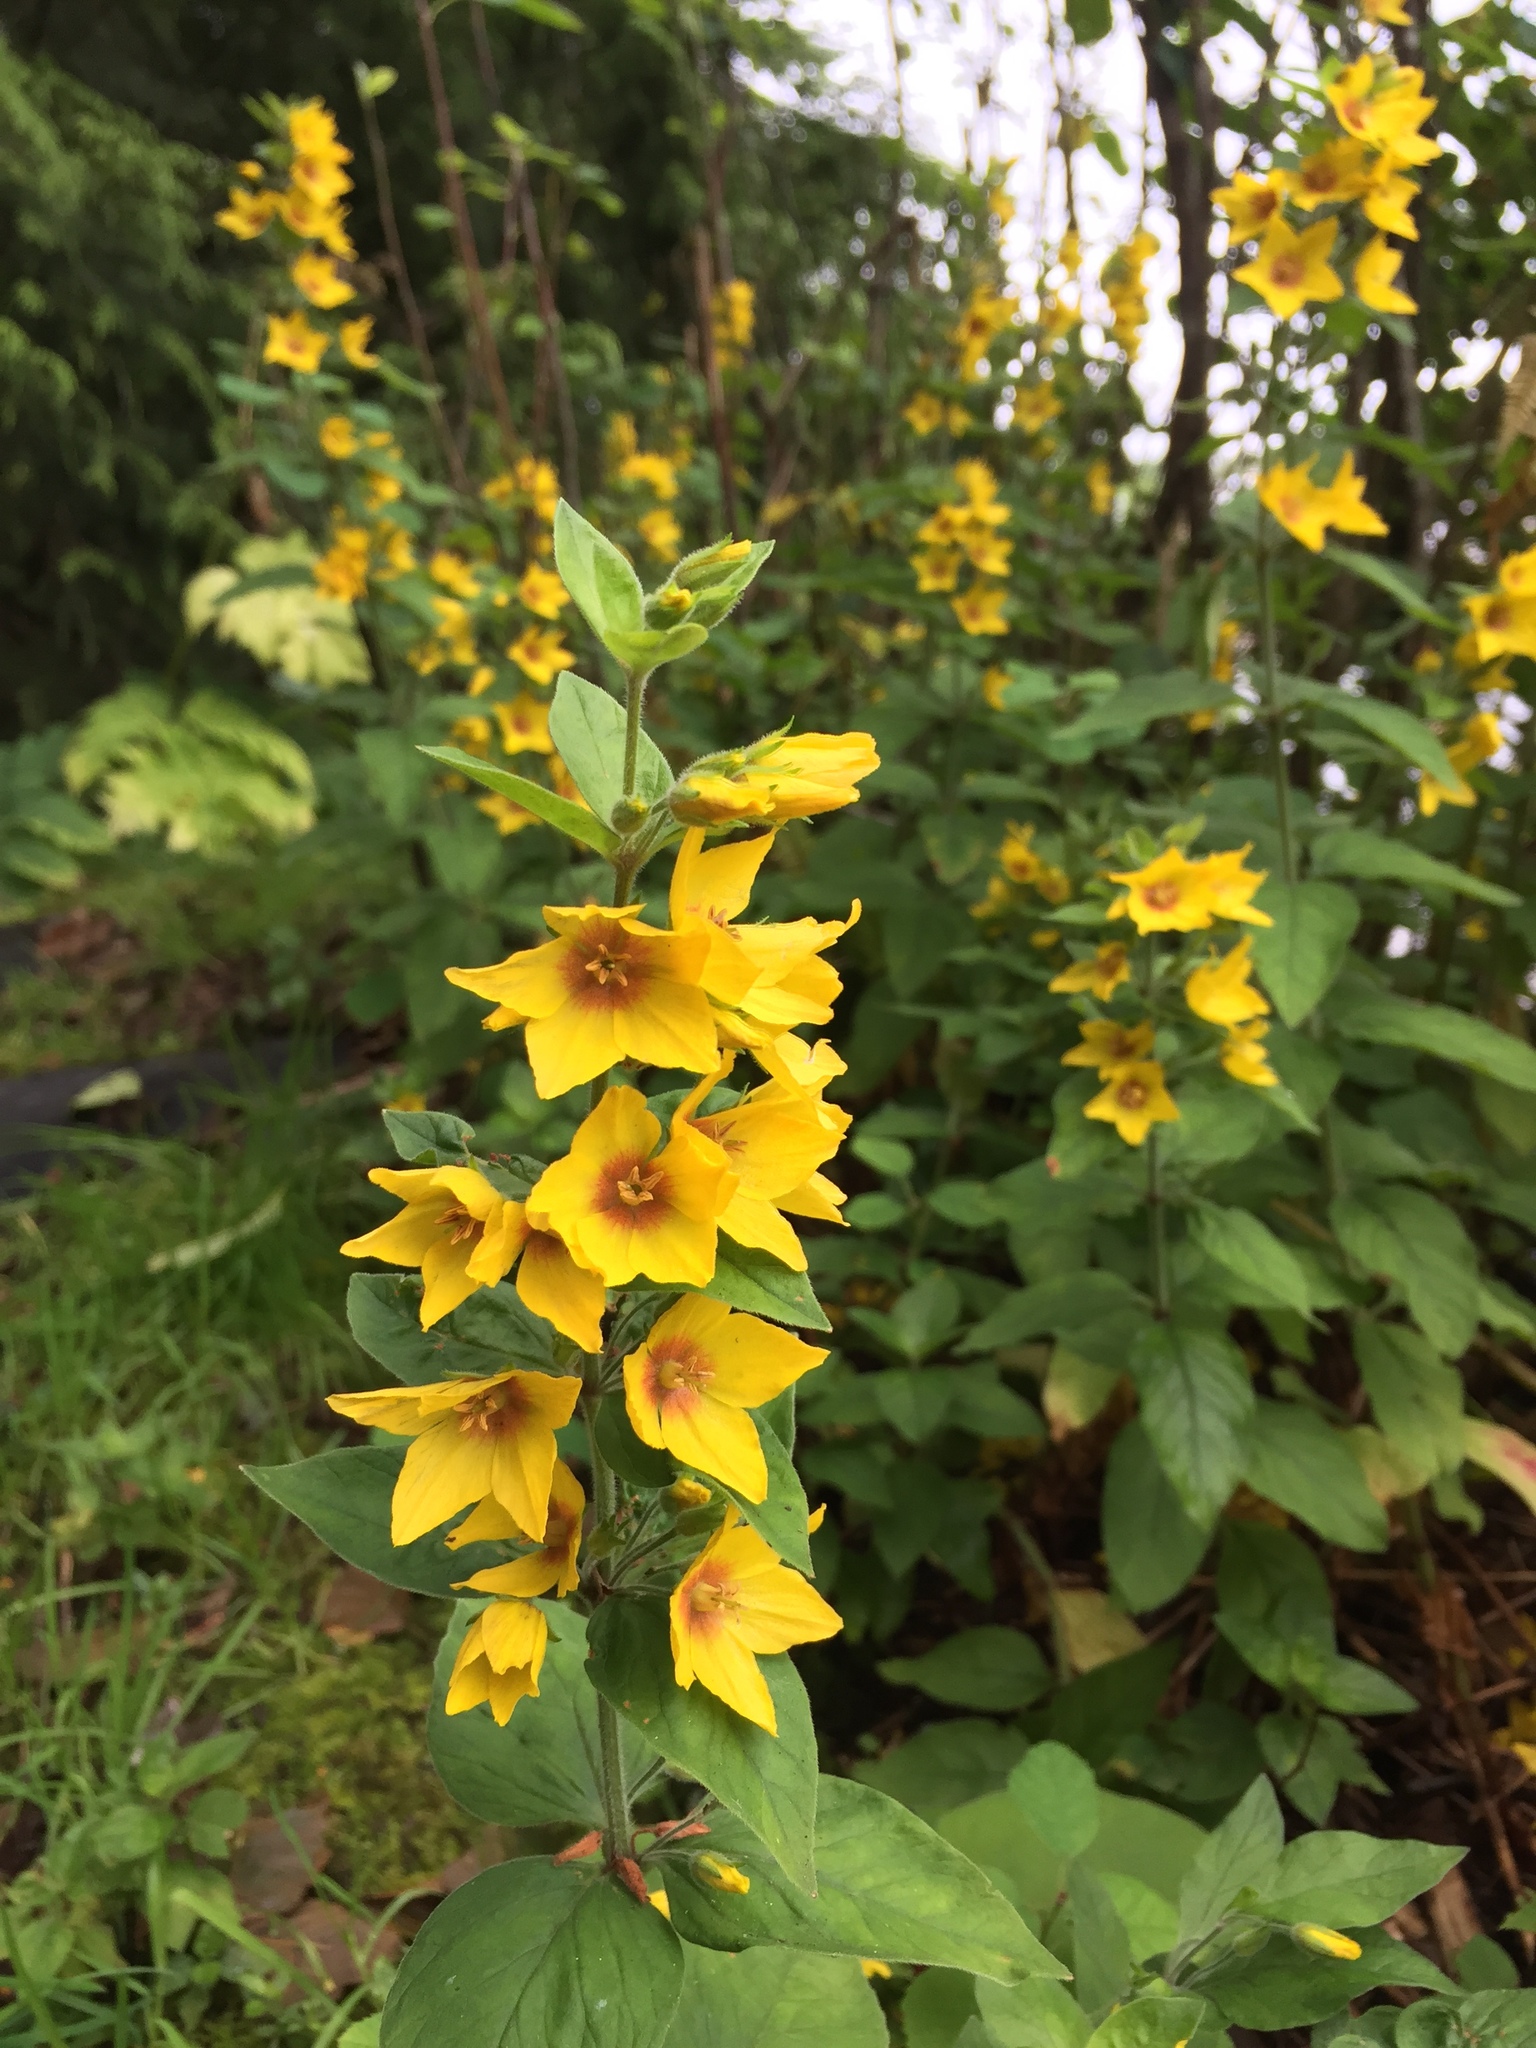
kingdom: Plantae
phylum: Tracheophyta
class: Magnoliopsida
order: Ericales
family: Primulaceae
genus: Lysimachia
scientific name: Lysimachia punctata
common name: Dotted loosestrife
